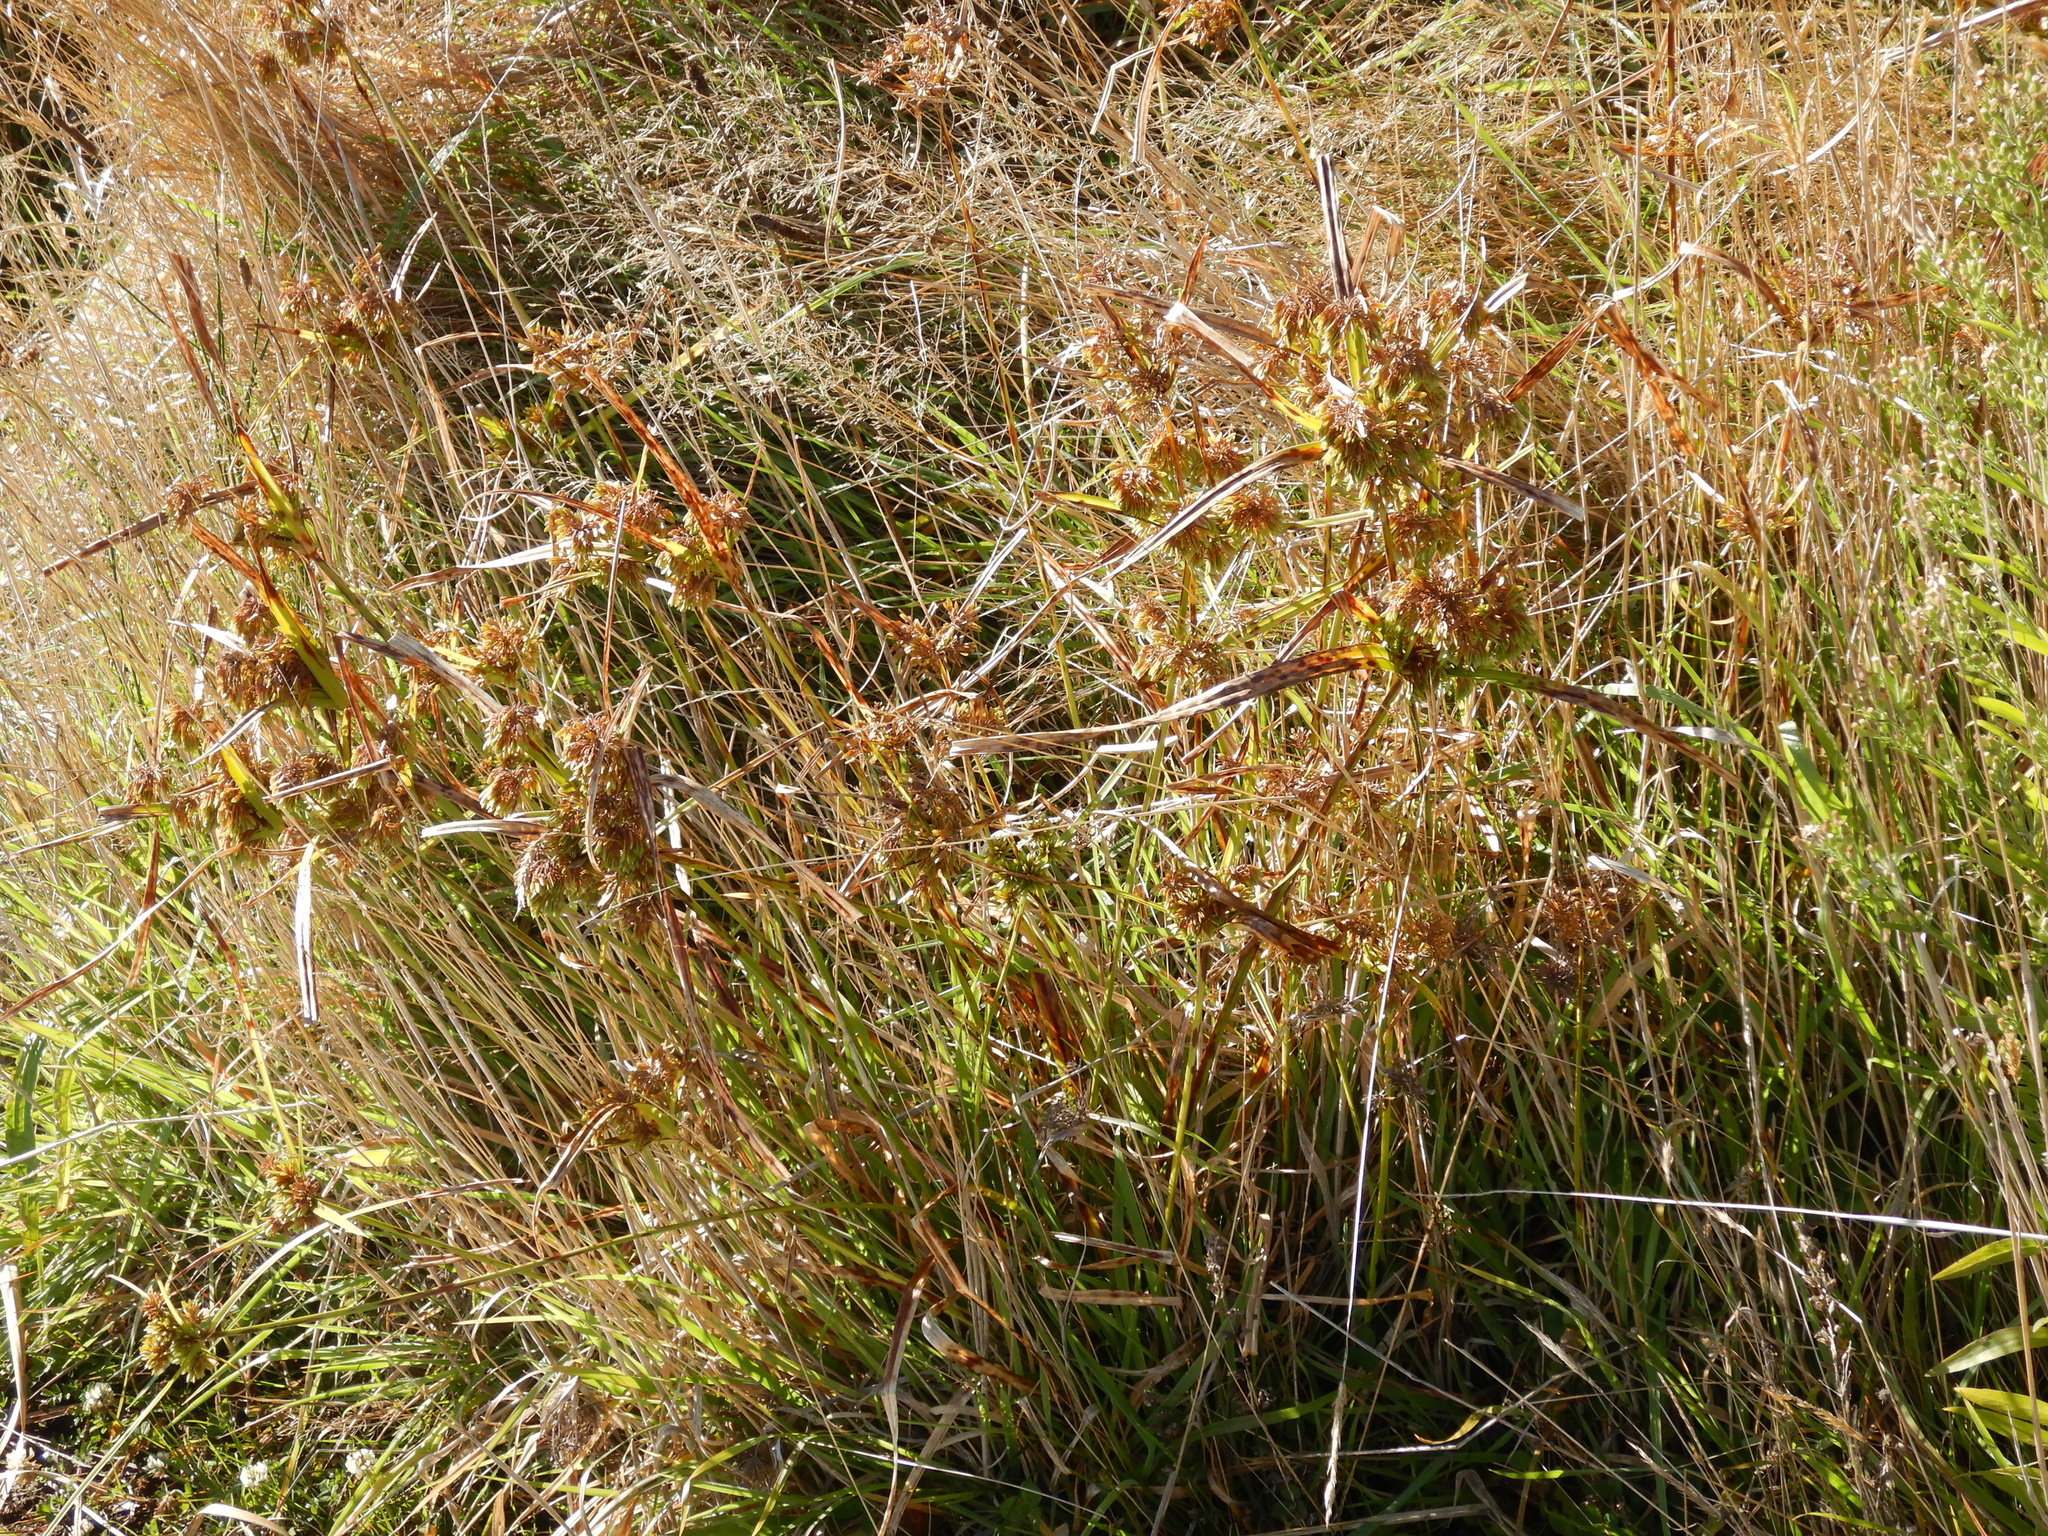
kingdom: Plantae
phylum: Tracheophyta
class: Liliopsida
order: Poales
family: Cyperaceae
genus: Cyperus
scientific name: Cyperus eragrostis
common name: Tall flatsedge
